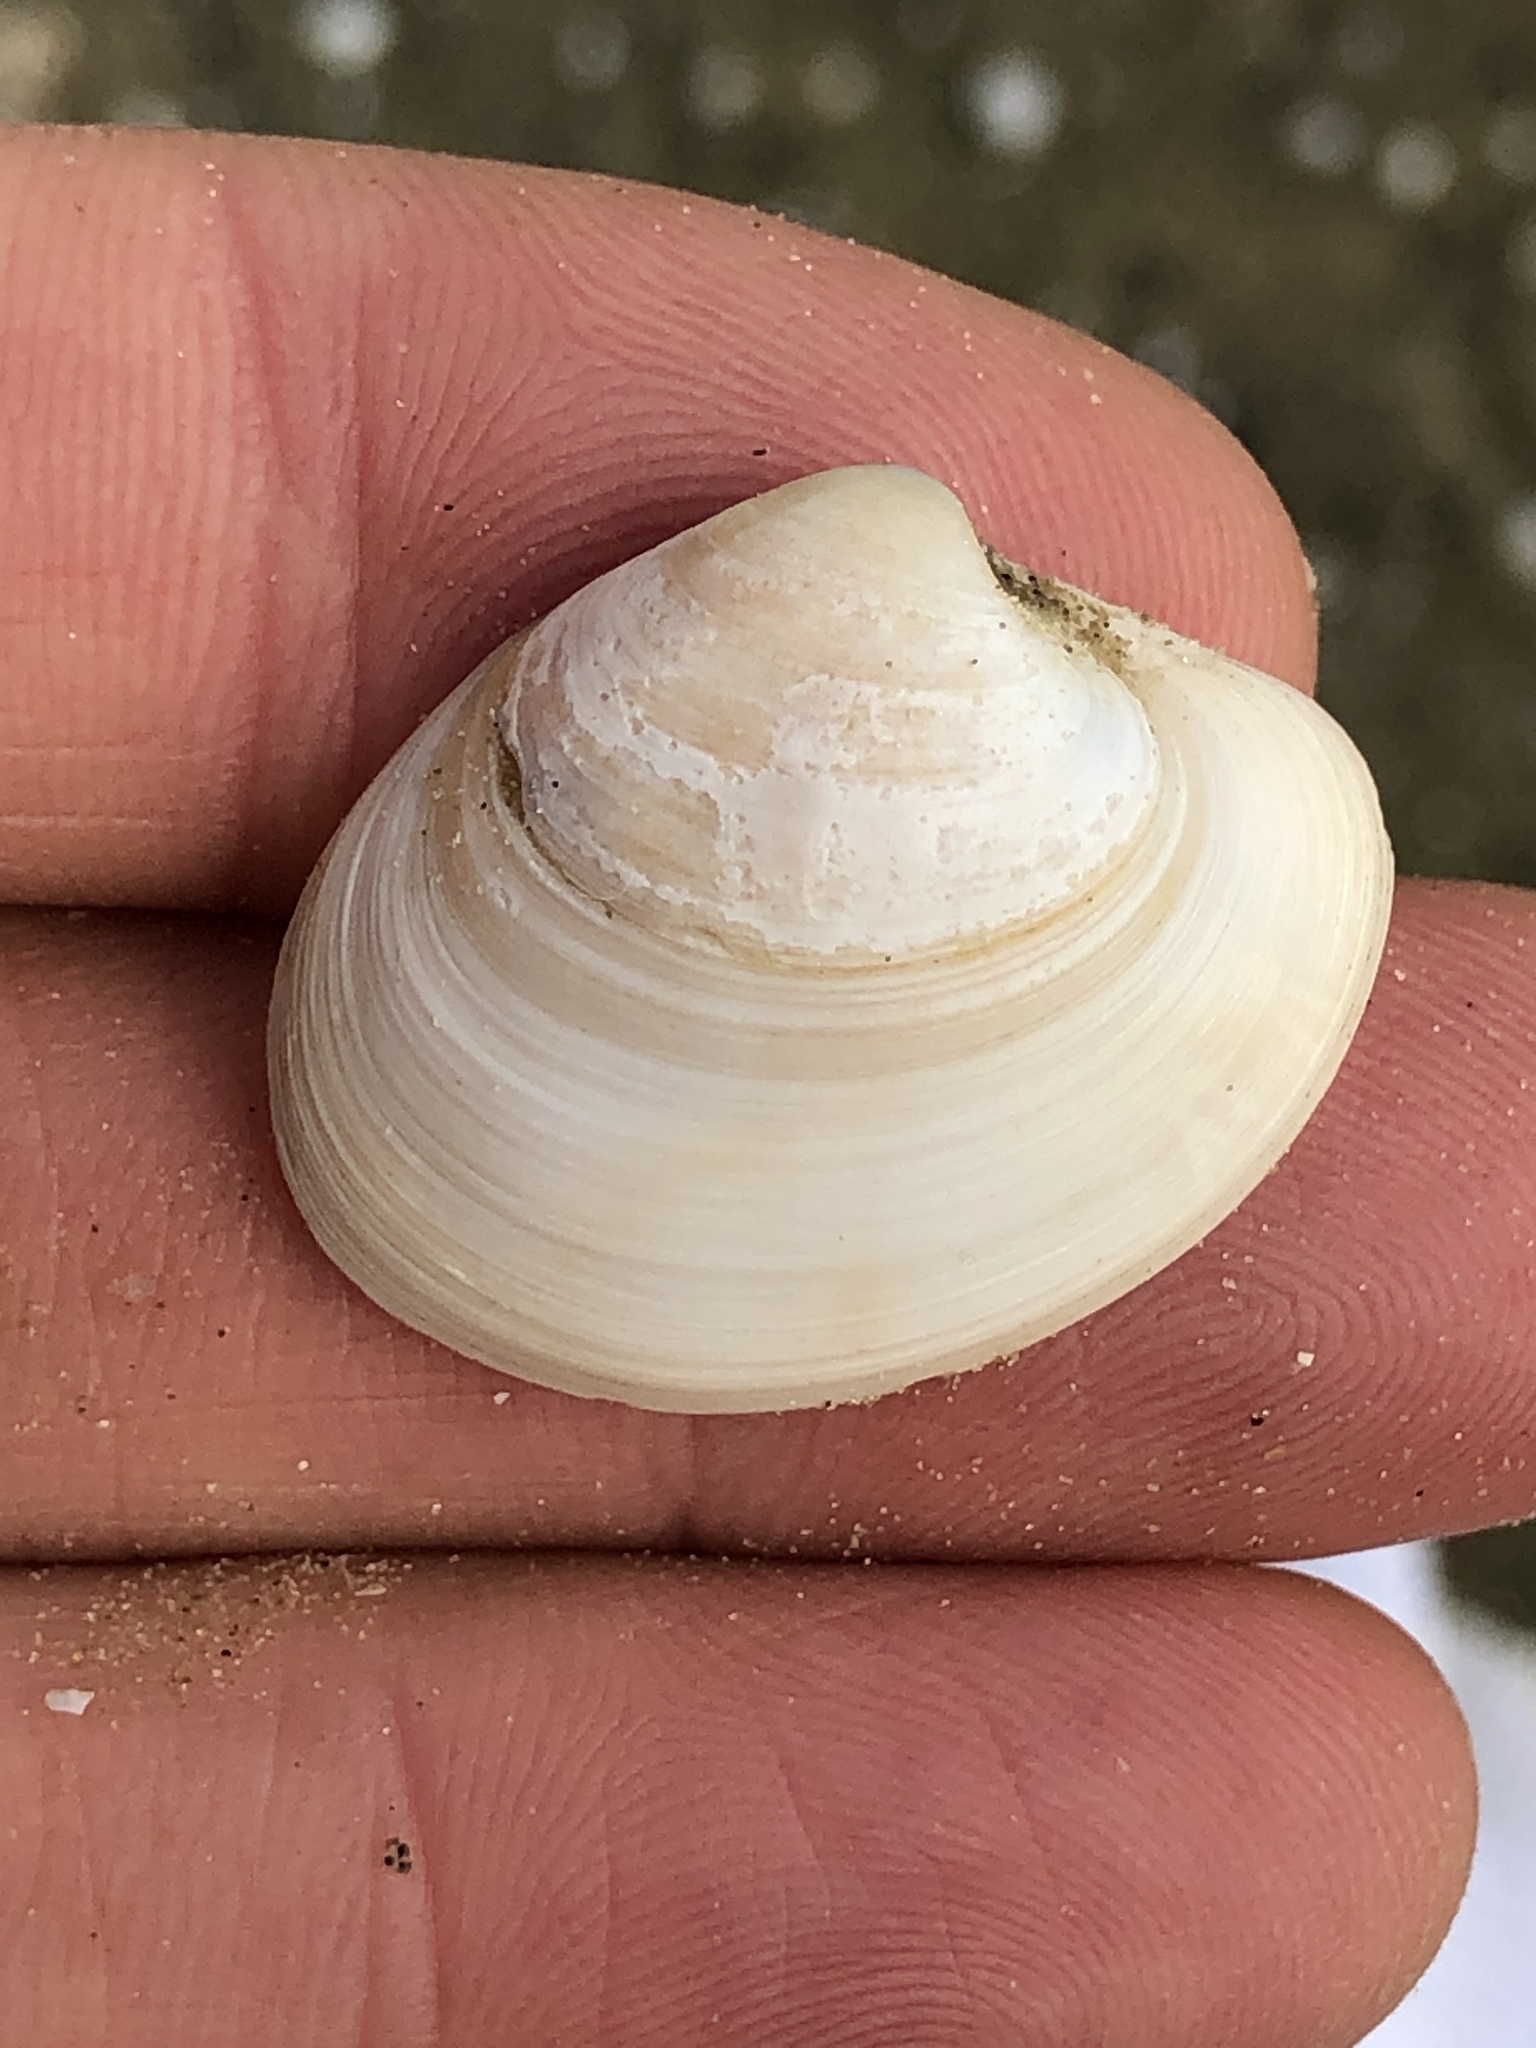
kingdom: Animalia
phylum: Mollusca
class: Bivalvia
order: Venerida
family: Veneridae
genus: Agriopoma
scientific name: Agriopoma texasianum
